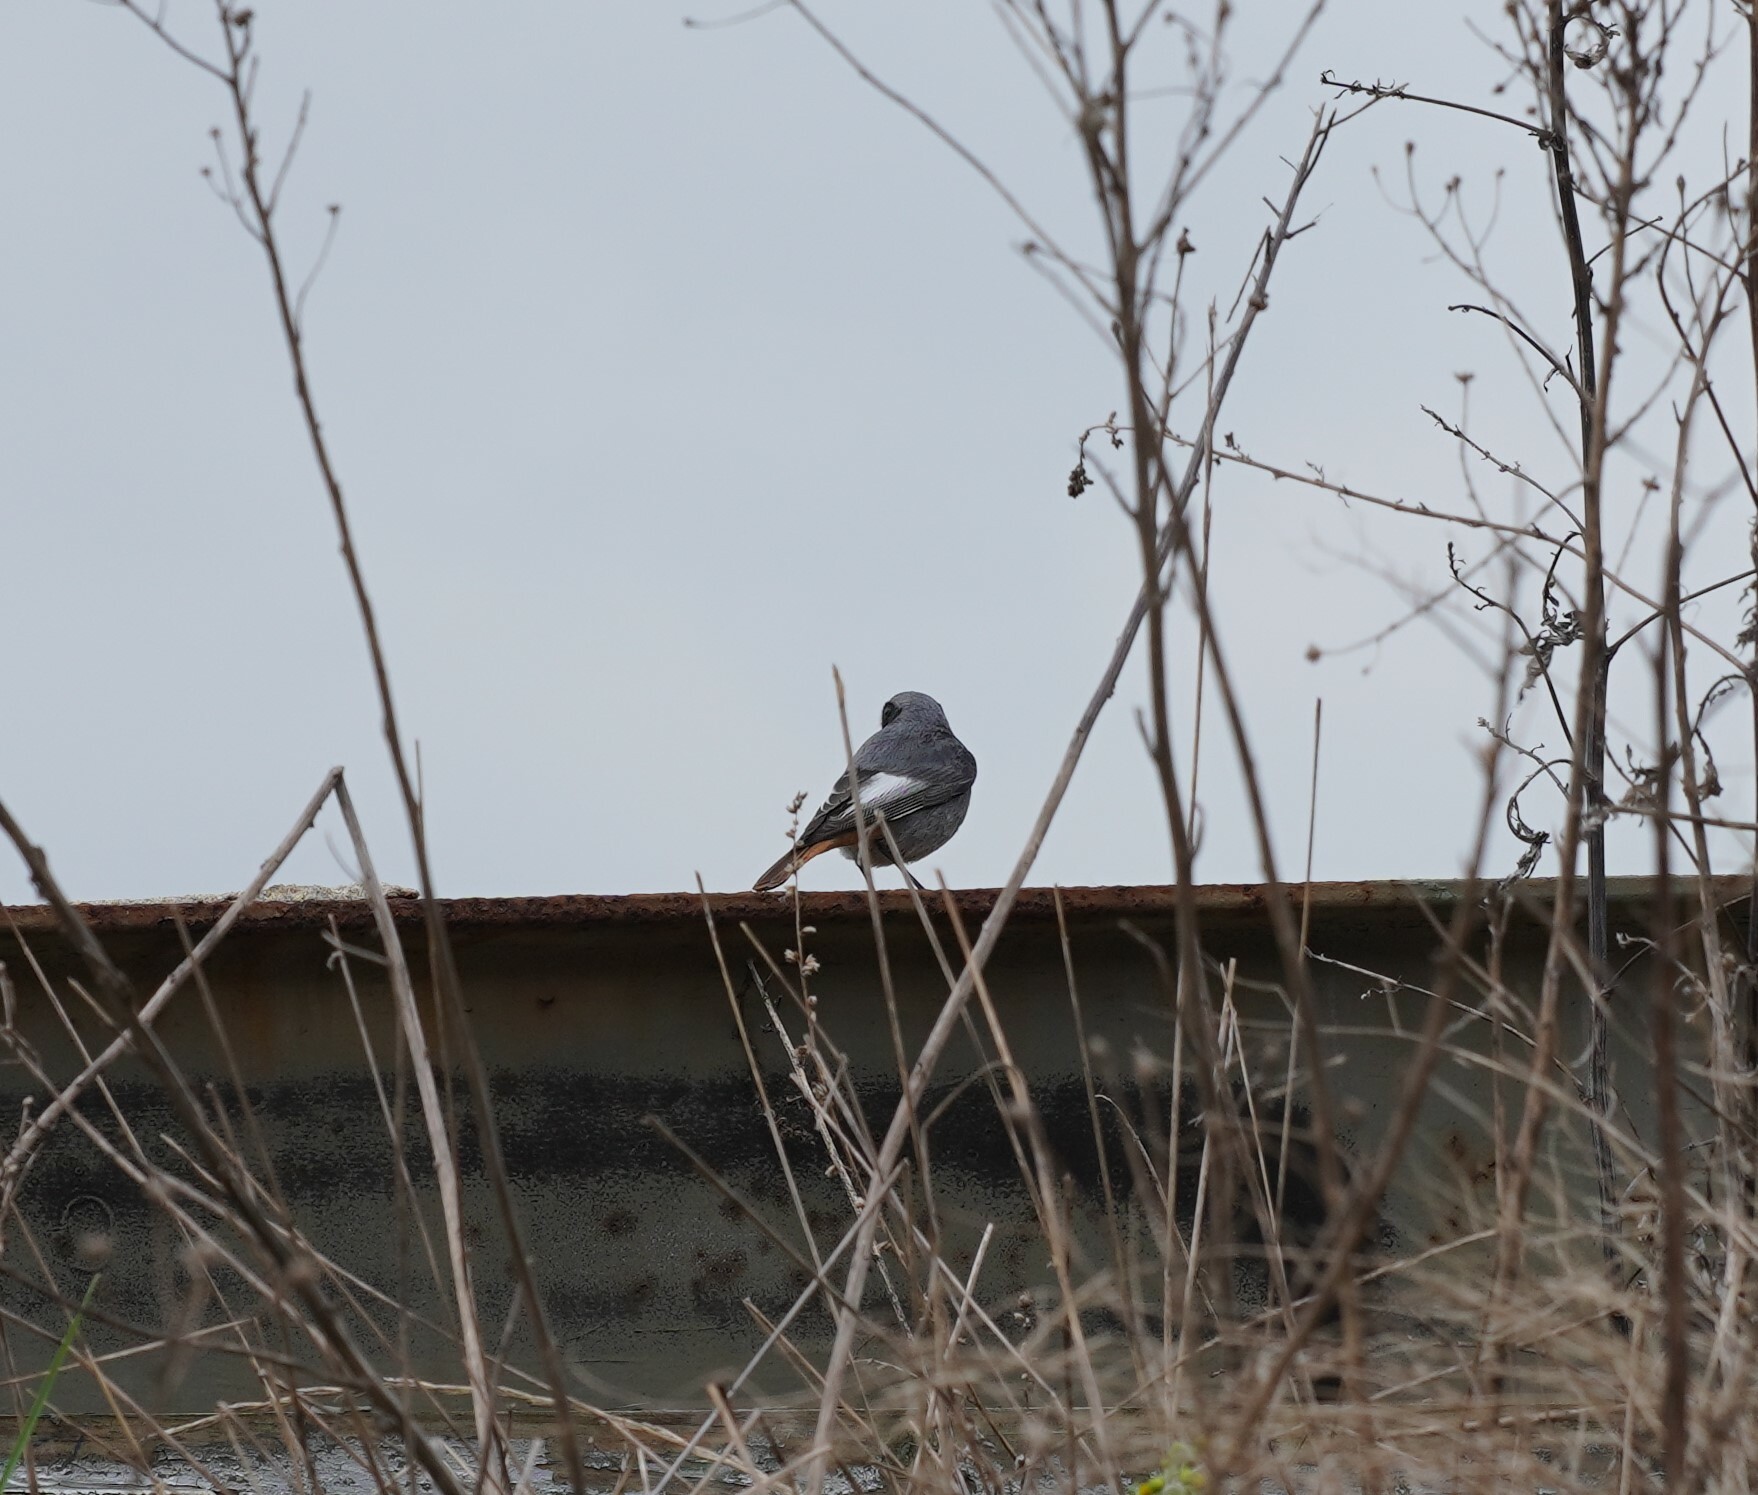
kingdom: Animalia
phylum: Chordata
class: Aves
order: Passeriformes
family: Muscicapidae
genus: Phoenicurus
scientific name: Phoenicurus ochruros
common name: Black redstart
